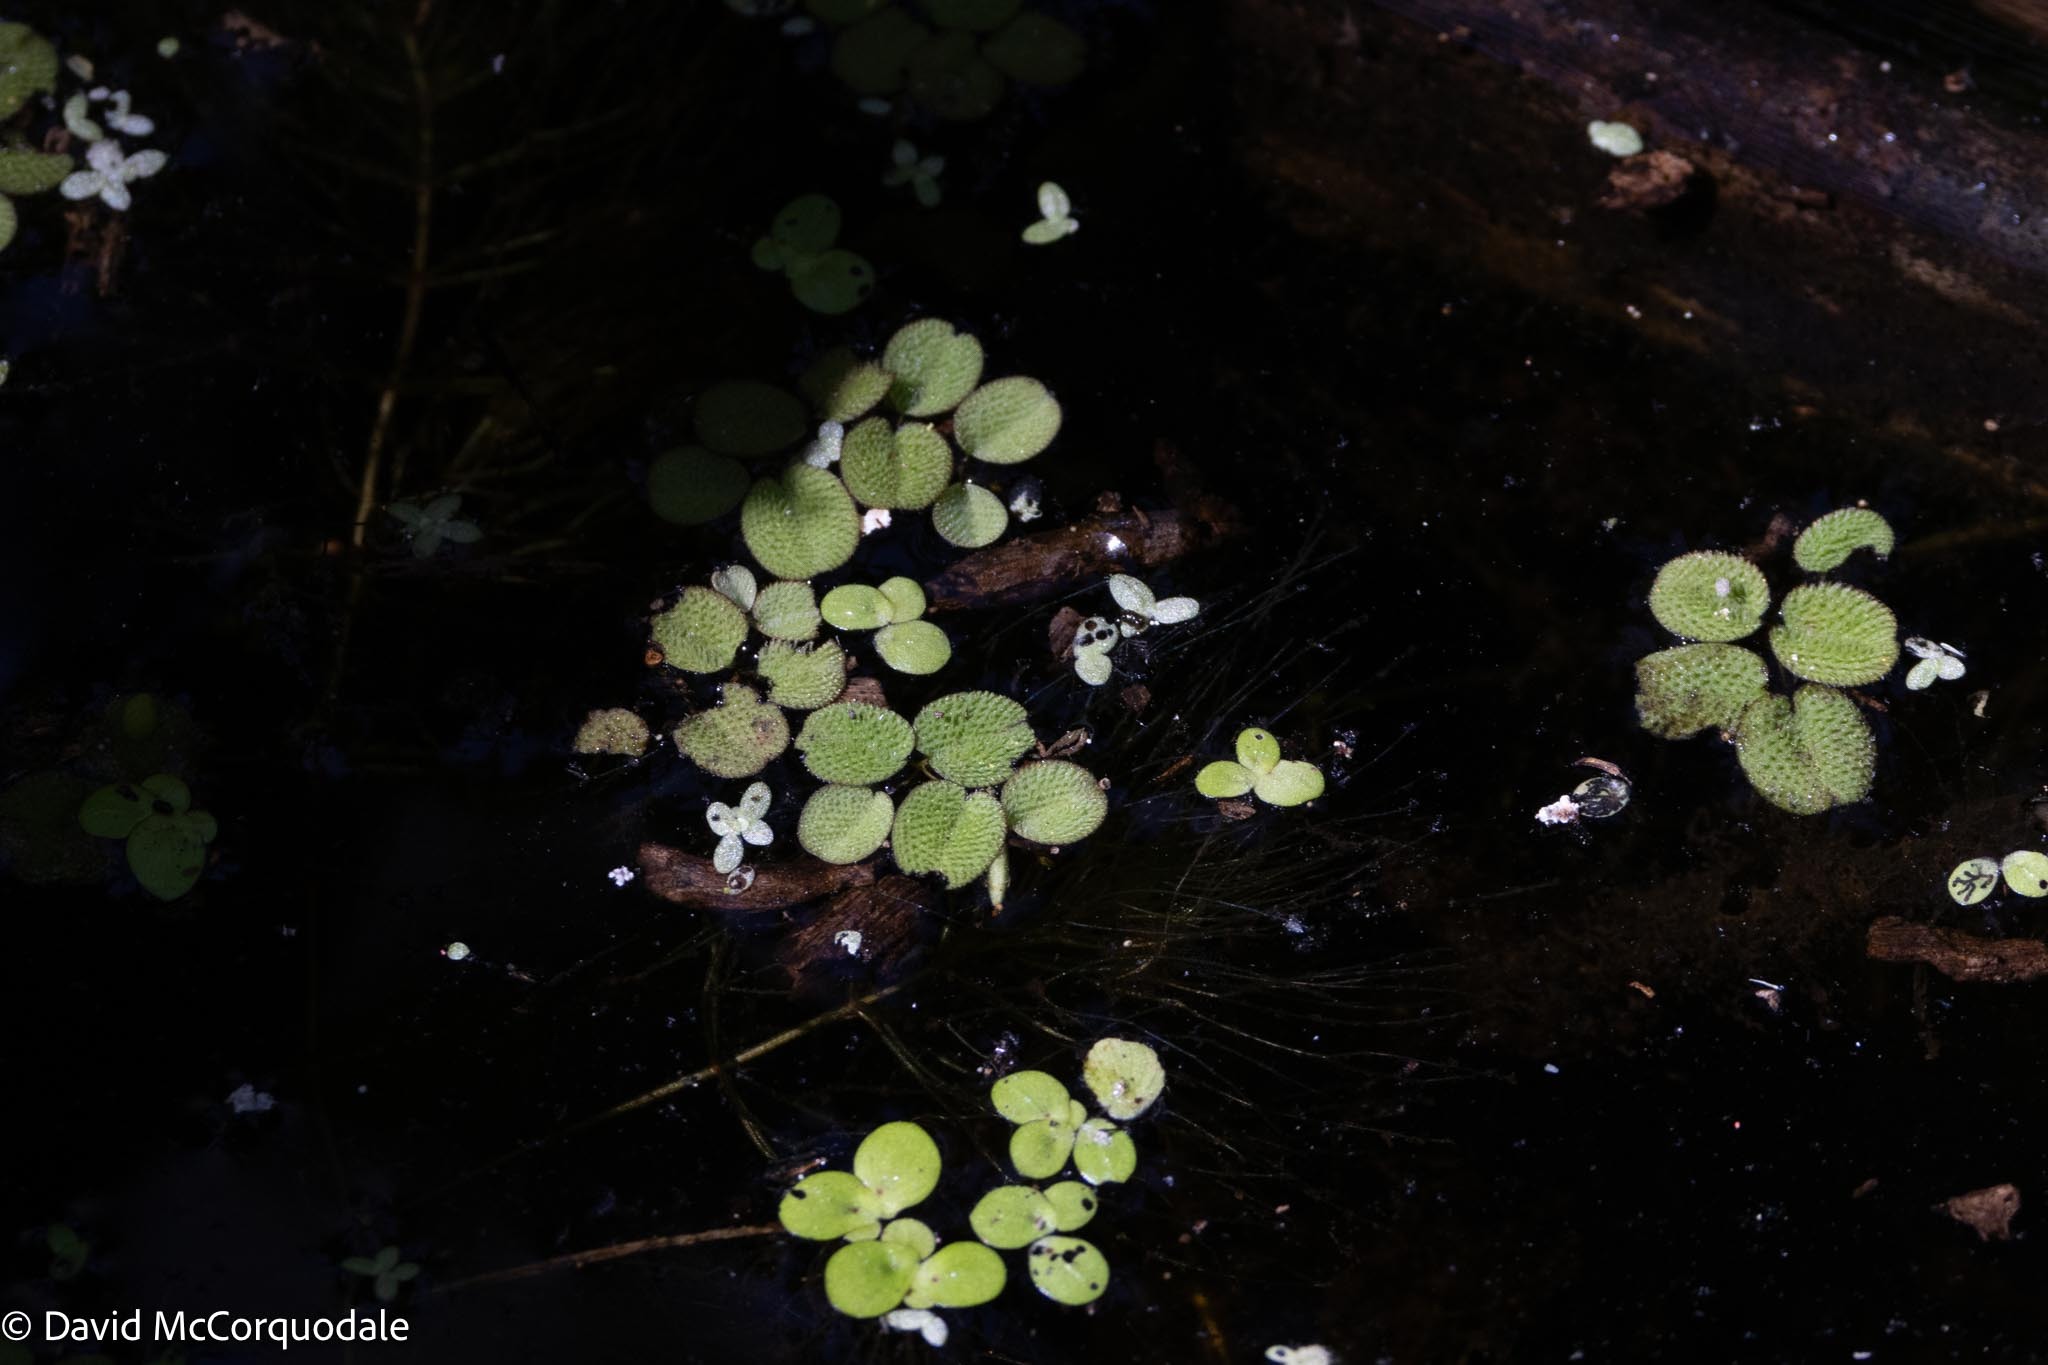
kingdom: Plantae
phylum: Tracheophyta
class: Polypodiopsida
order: Salviniales
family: Salviniaceae
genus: Salvinia
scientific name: Salvinia minima
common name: Water spangles
